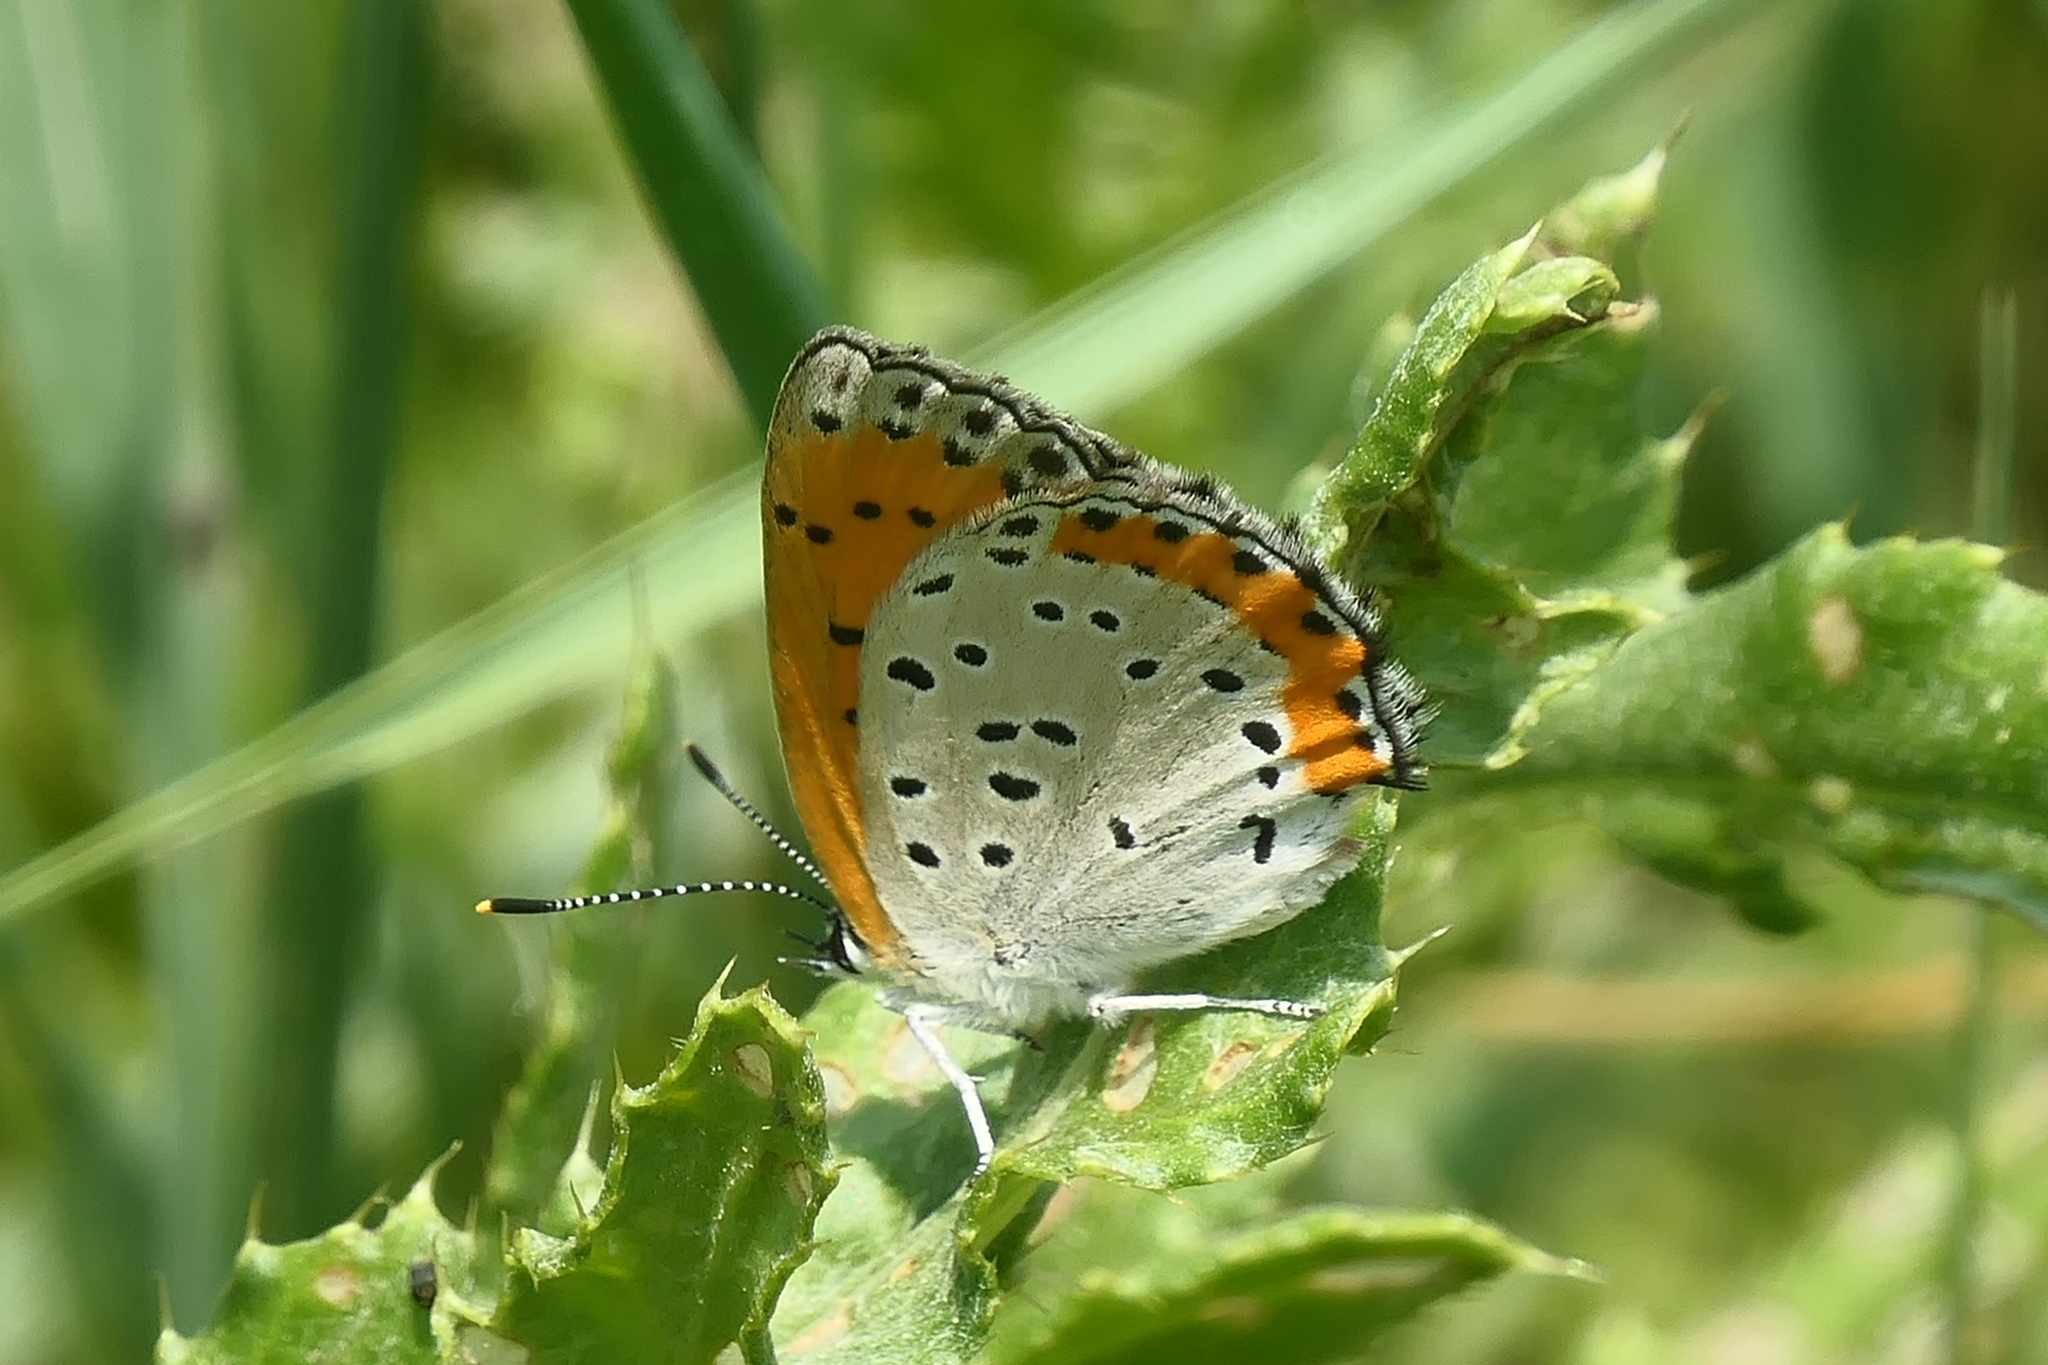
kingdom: Animalia
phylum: Arthropoda
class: Insecta
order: Lepidoptera
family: Lycaenidae
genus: Tharsalea
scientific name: Tharsalea hyllus
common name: Bronze copper
